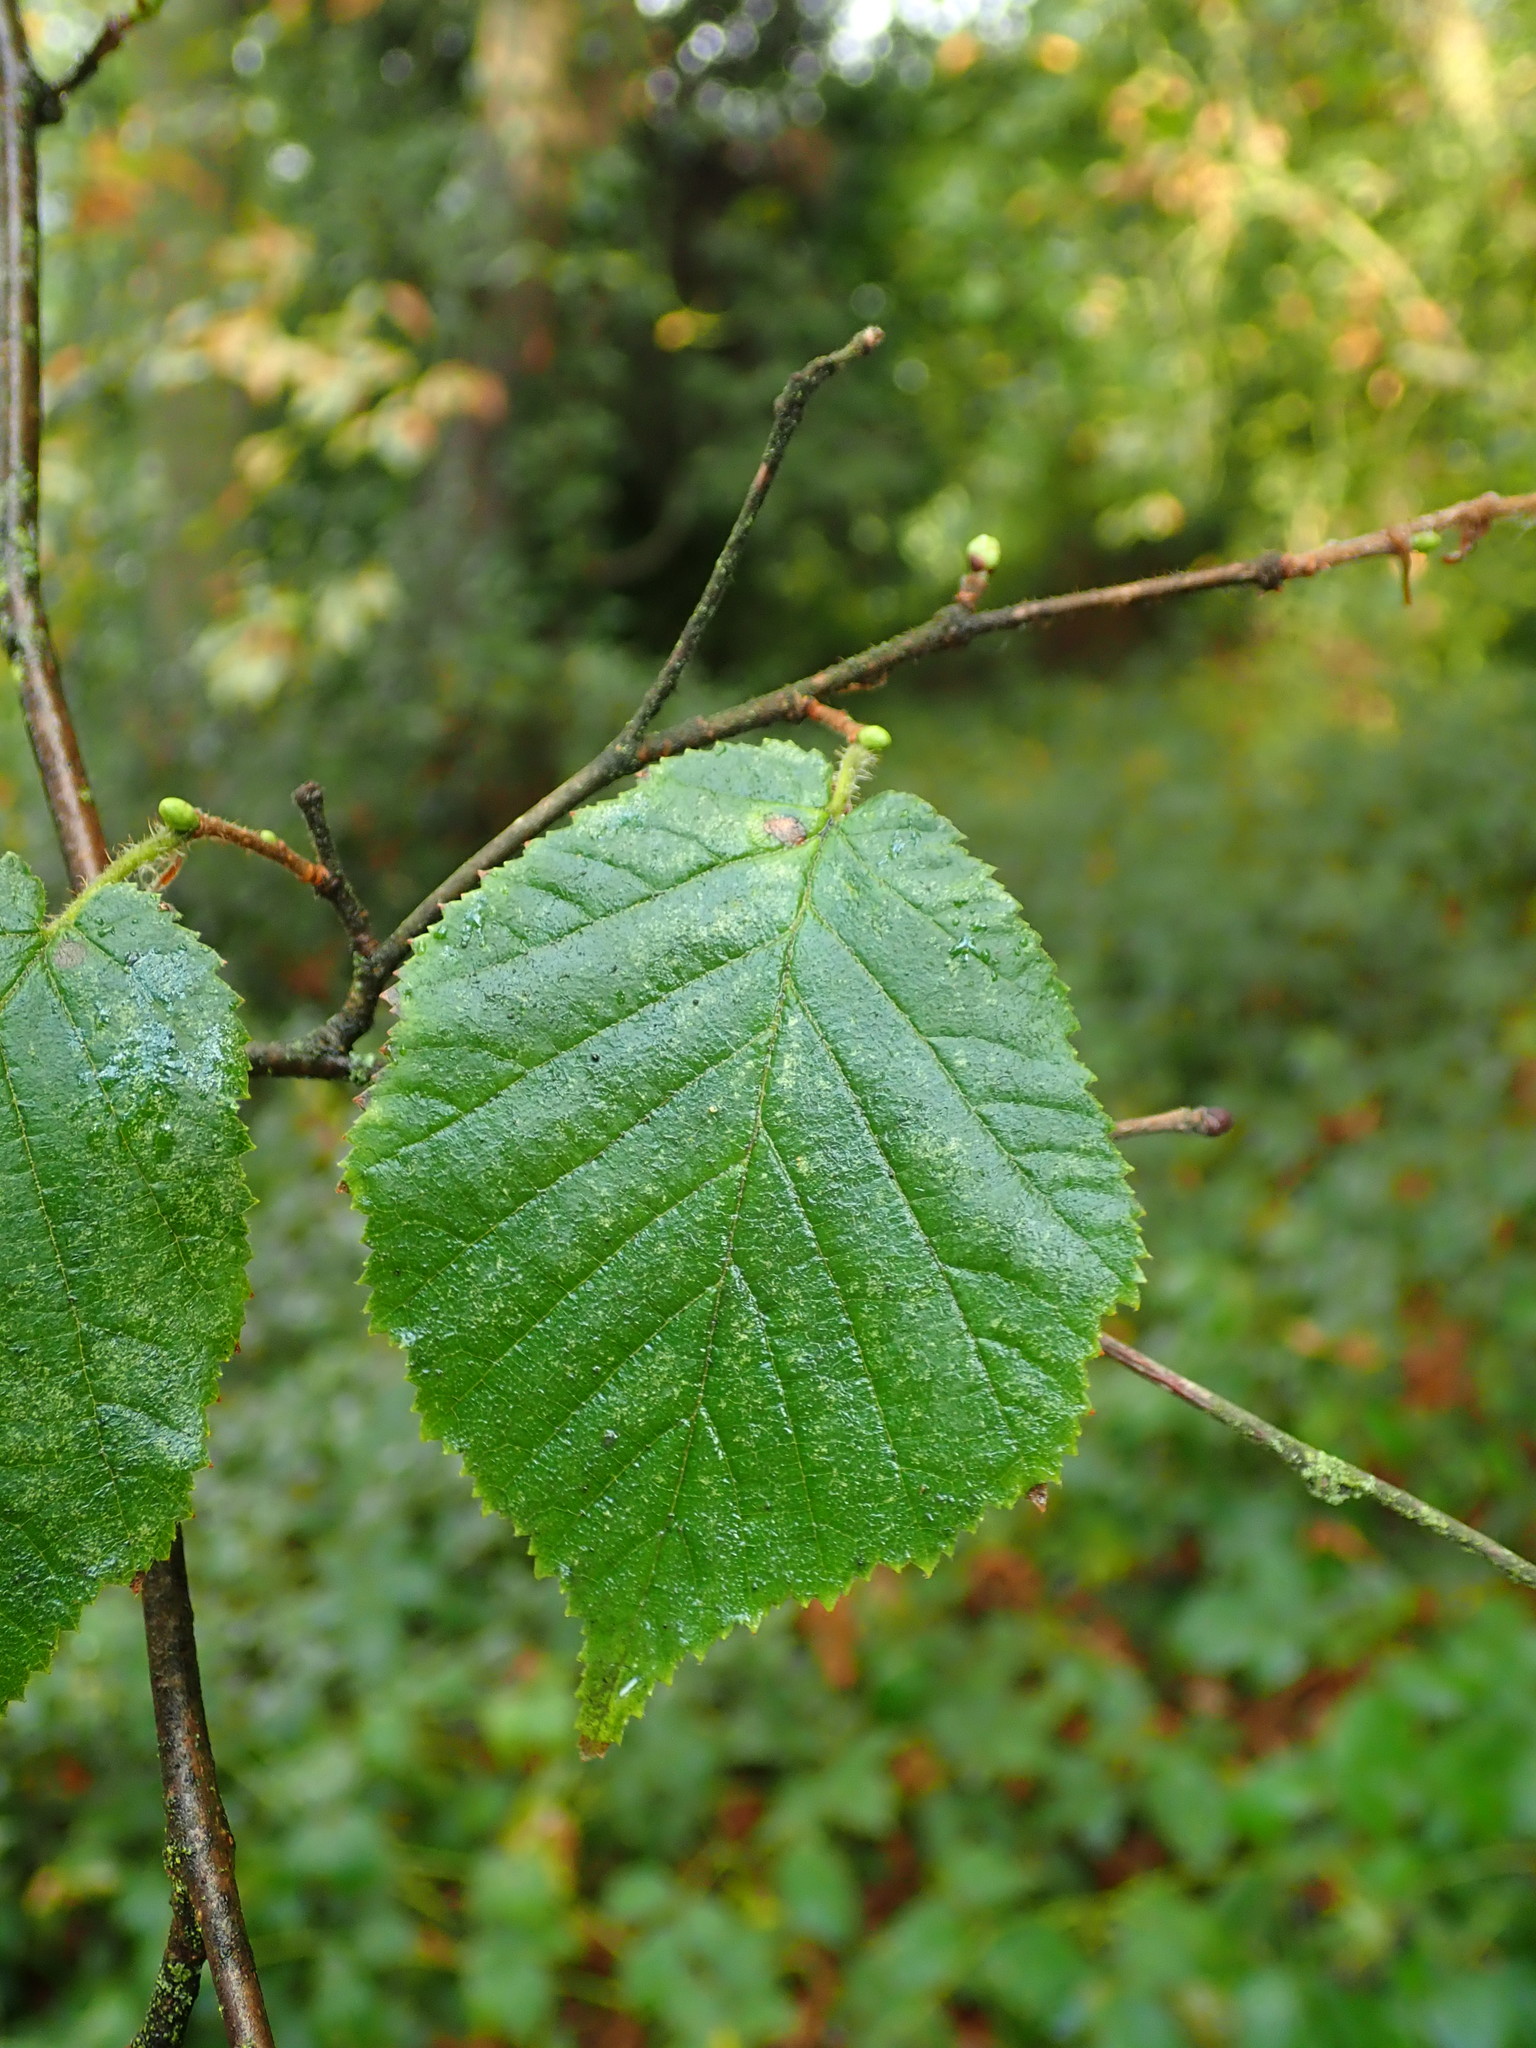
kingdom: Plantae
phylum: Tracheophyta
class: Magnoliopsida
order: Fagales
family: Betulaceae
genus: Corylus
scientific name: Corylus avellana
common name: European hazel
